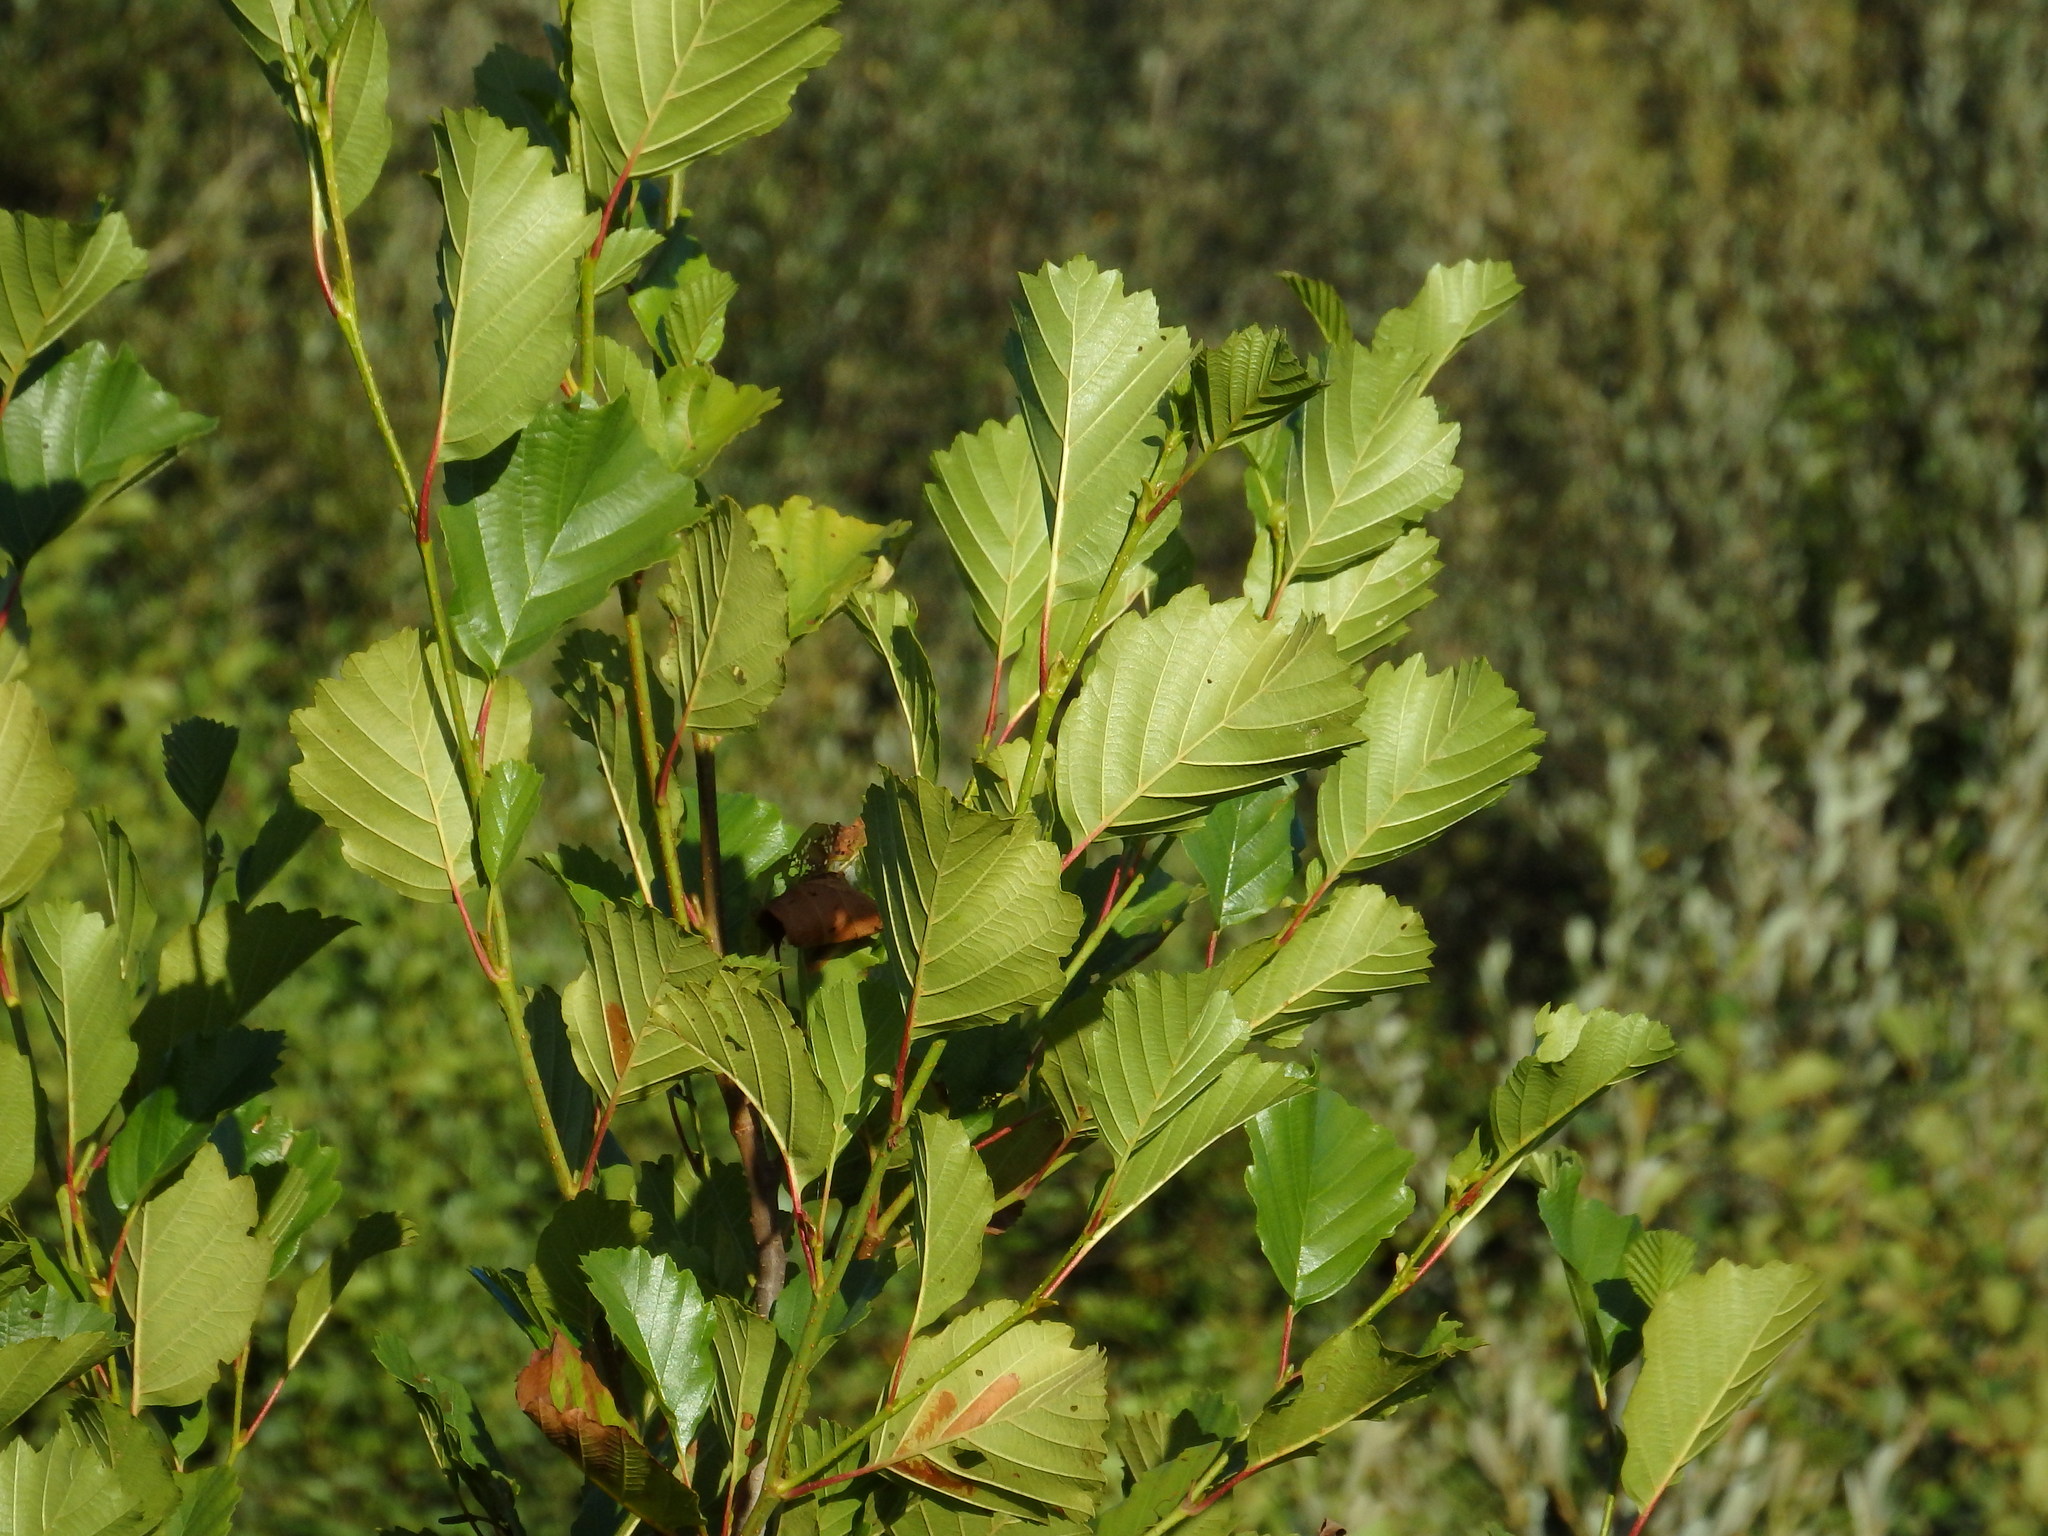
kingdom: Plantae
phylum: Tracheophyta
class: Magnoliopsida
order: Fagales
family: Betulaceae
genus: Alnus
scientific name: Alnus lusitanica
